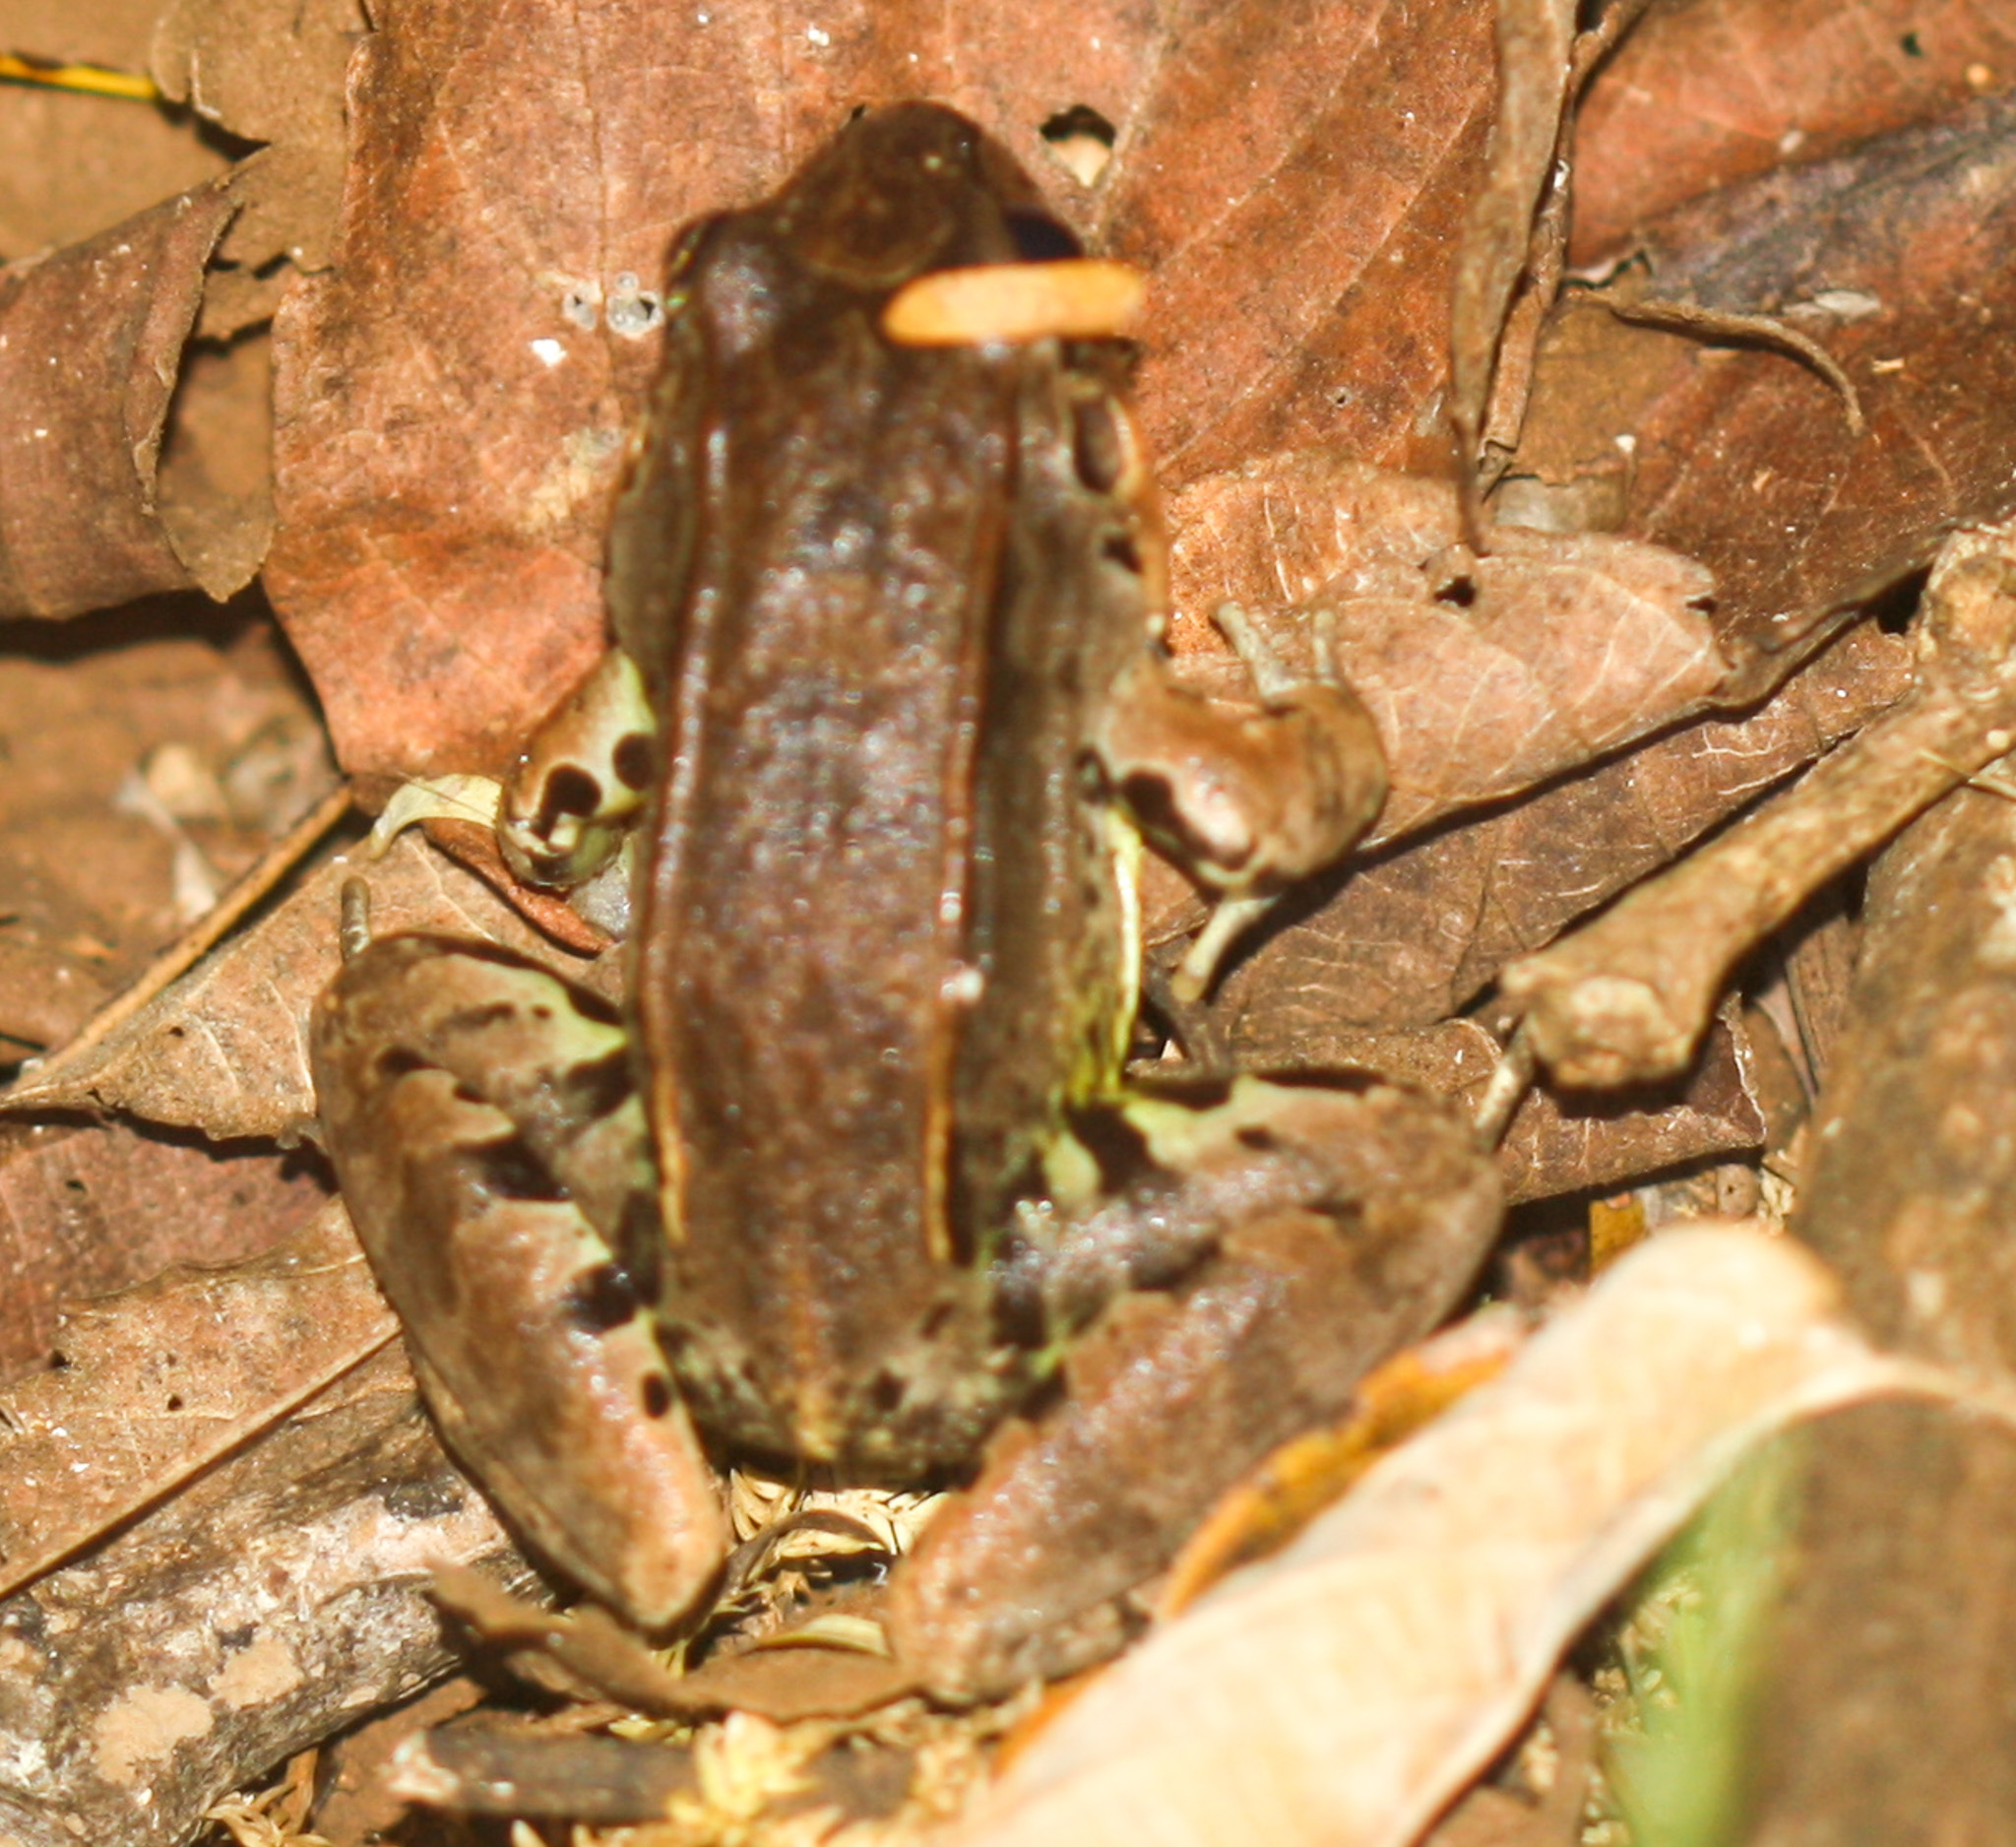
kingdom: Animalia
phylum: Chordata
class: Amphibia
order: Anura
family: Leptodactylidae
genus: Leptodactylus
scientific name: Leptodactylus savagei
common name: Savage's thin-toed frog
